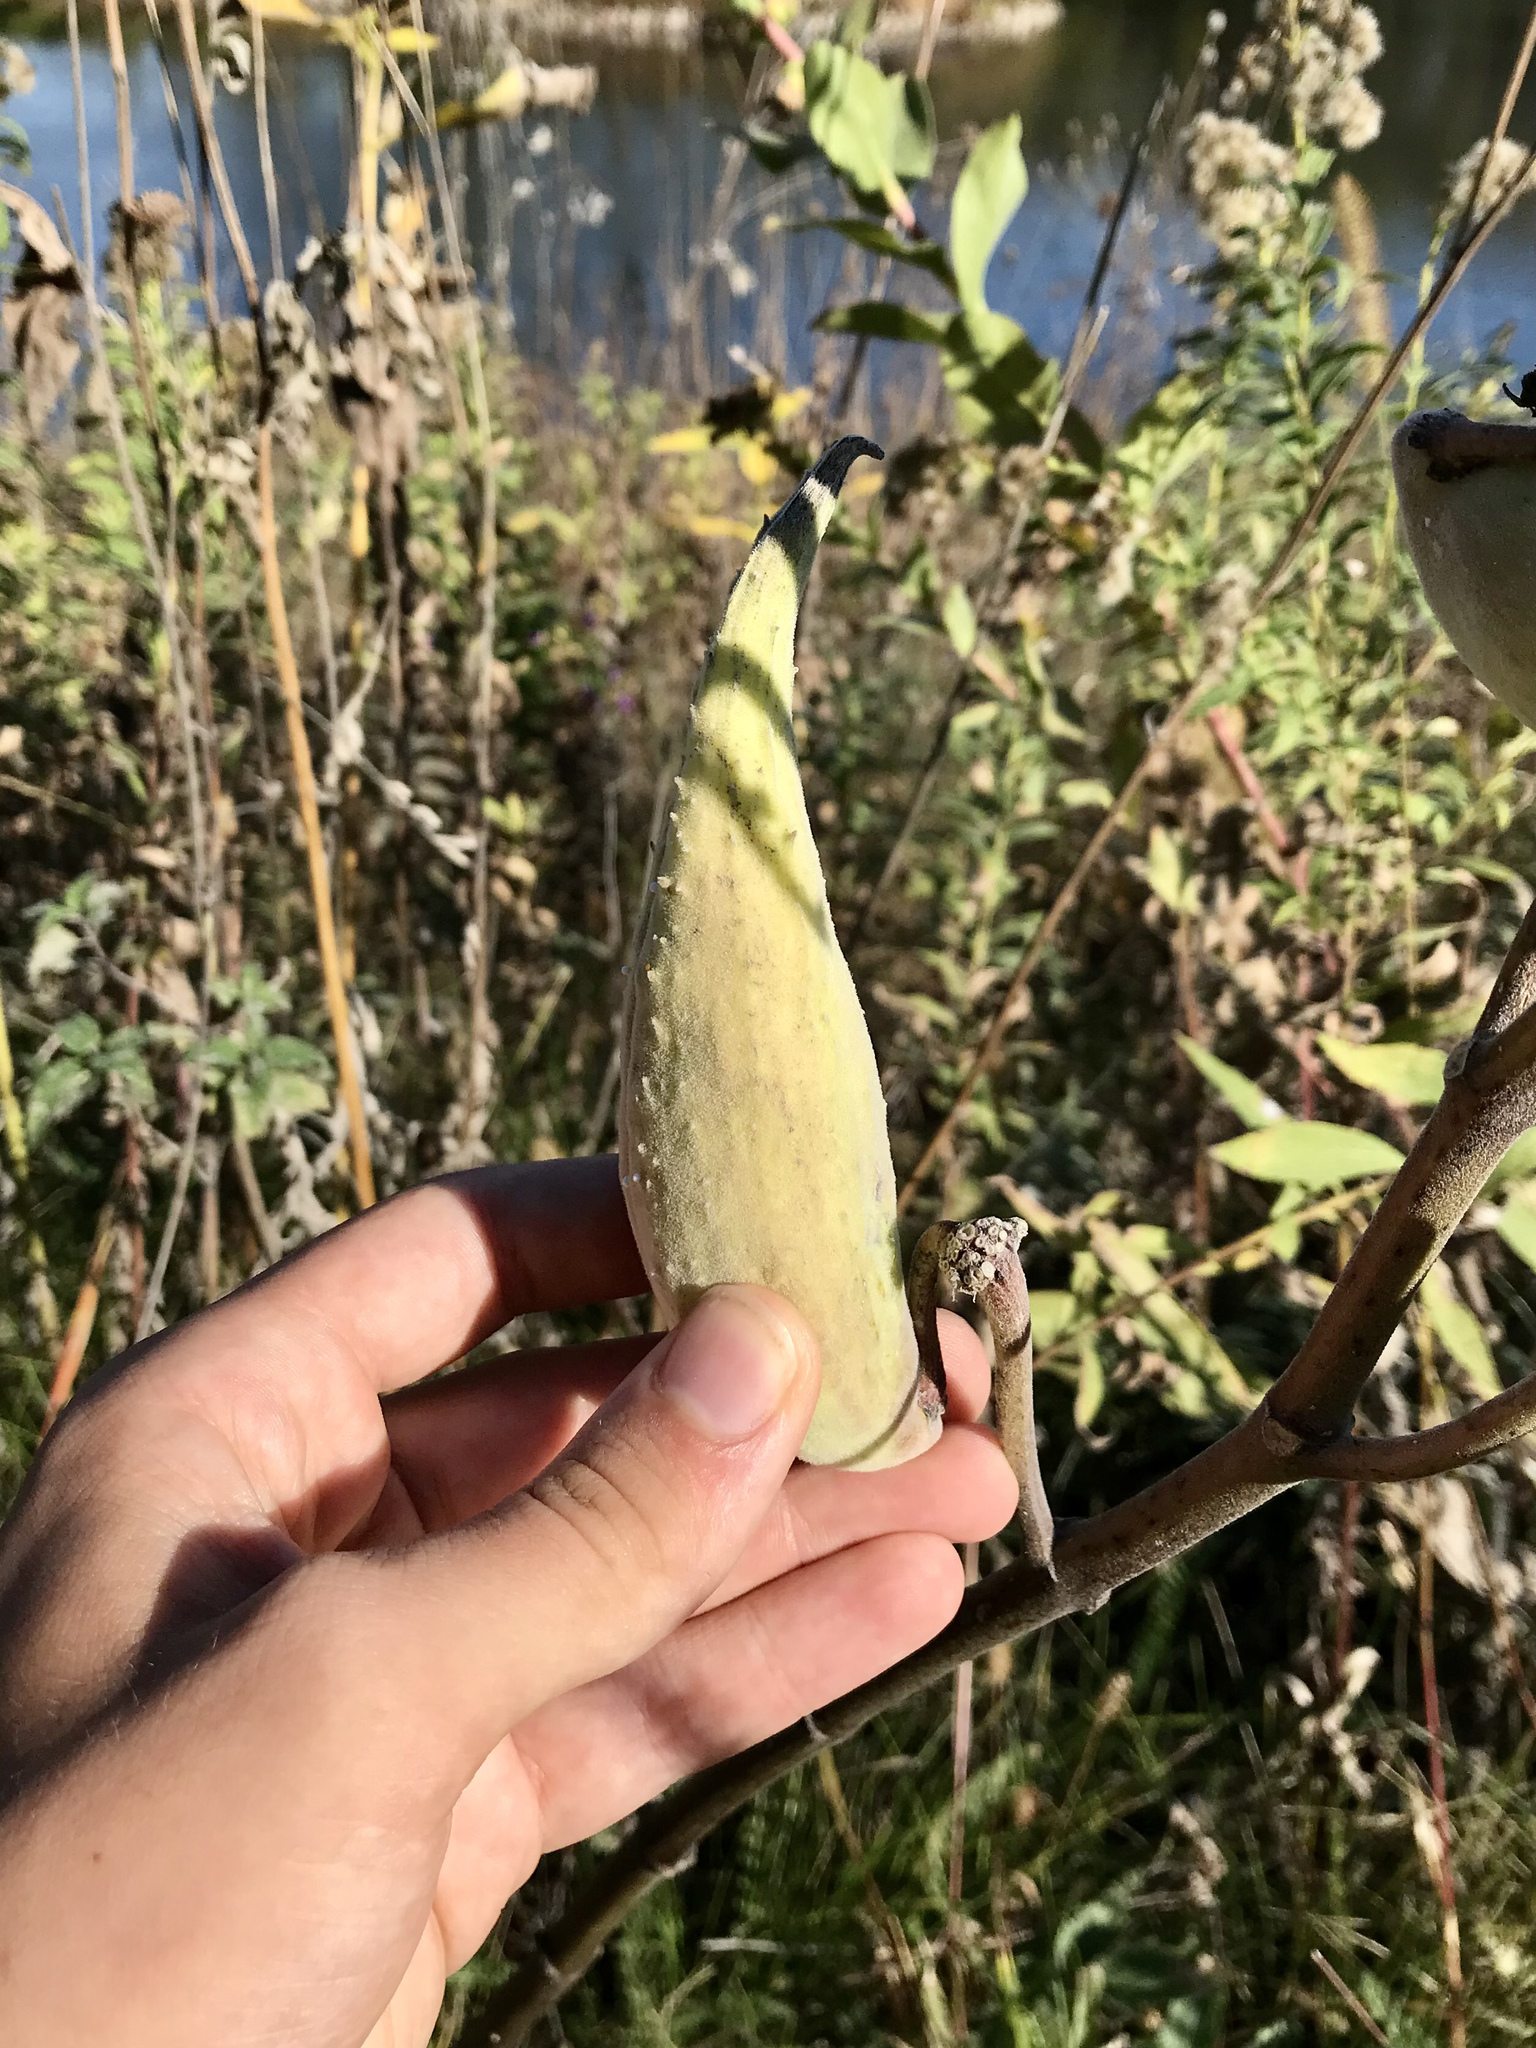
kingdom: Plantae
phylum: Tracheophyta
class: Magnoliopsida
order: Gentianales
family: Apocynaceae
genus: Asclepias
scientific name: Asclepias syriaca
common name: Common milkweed
